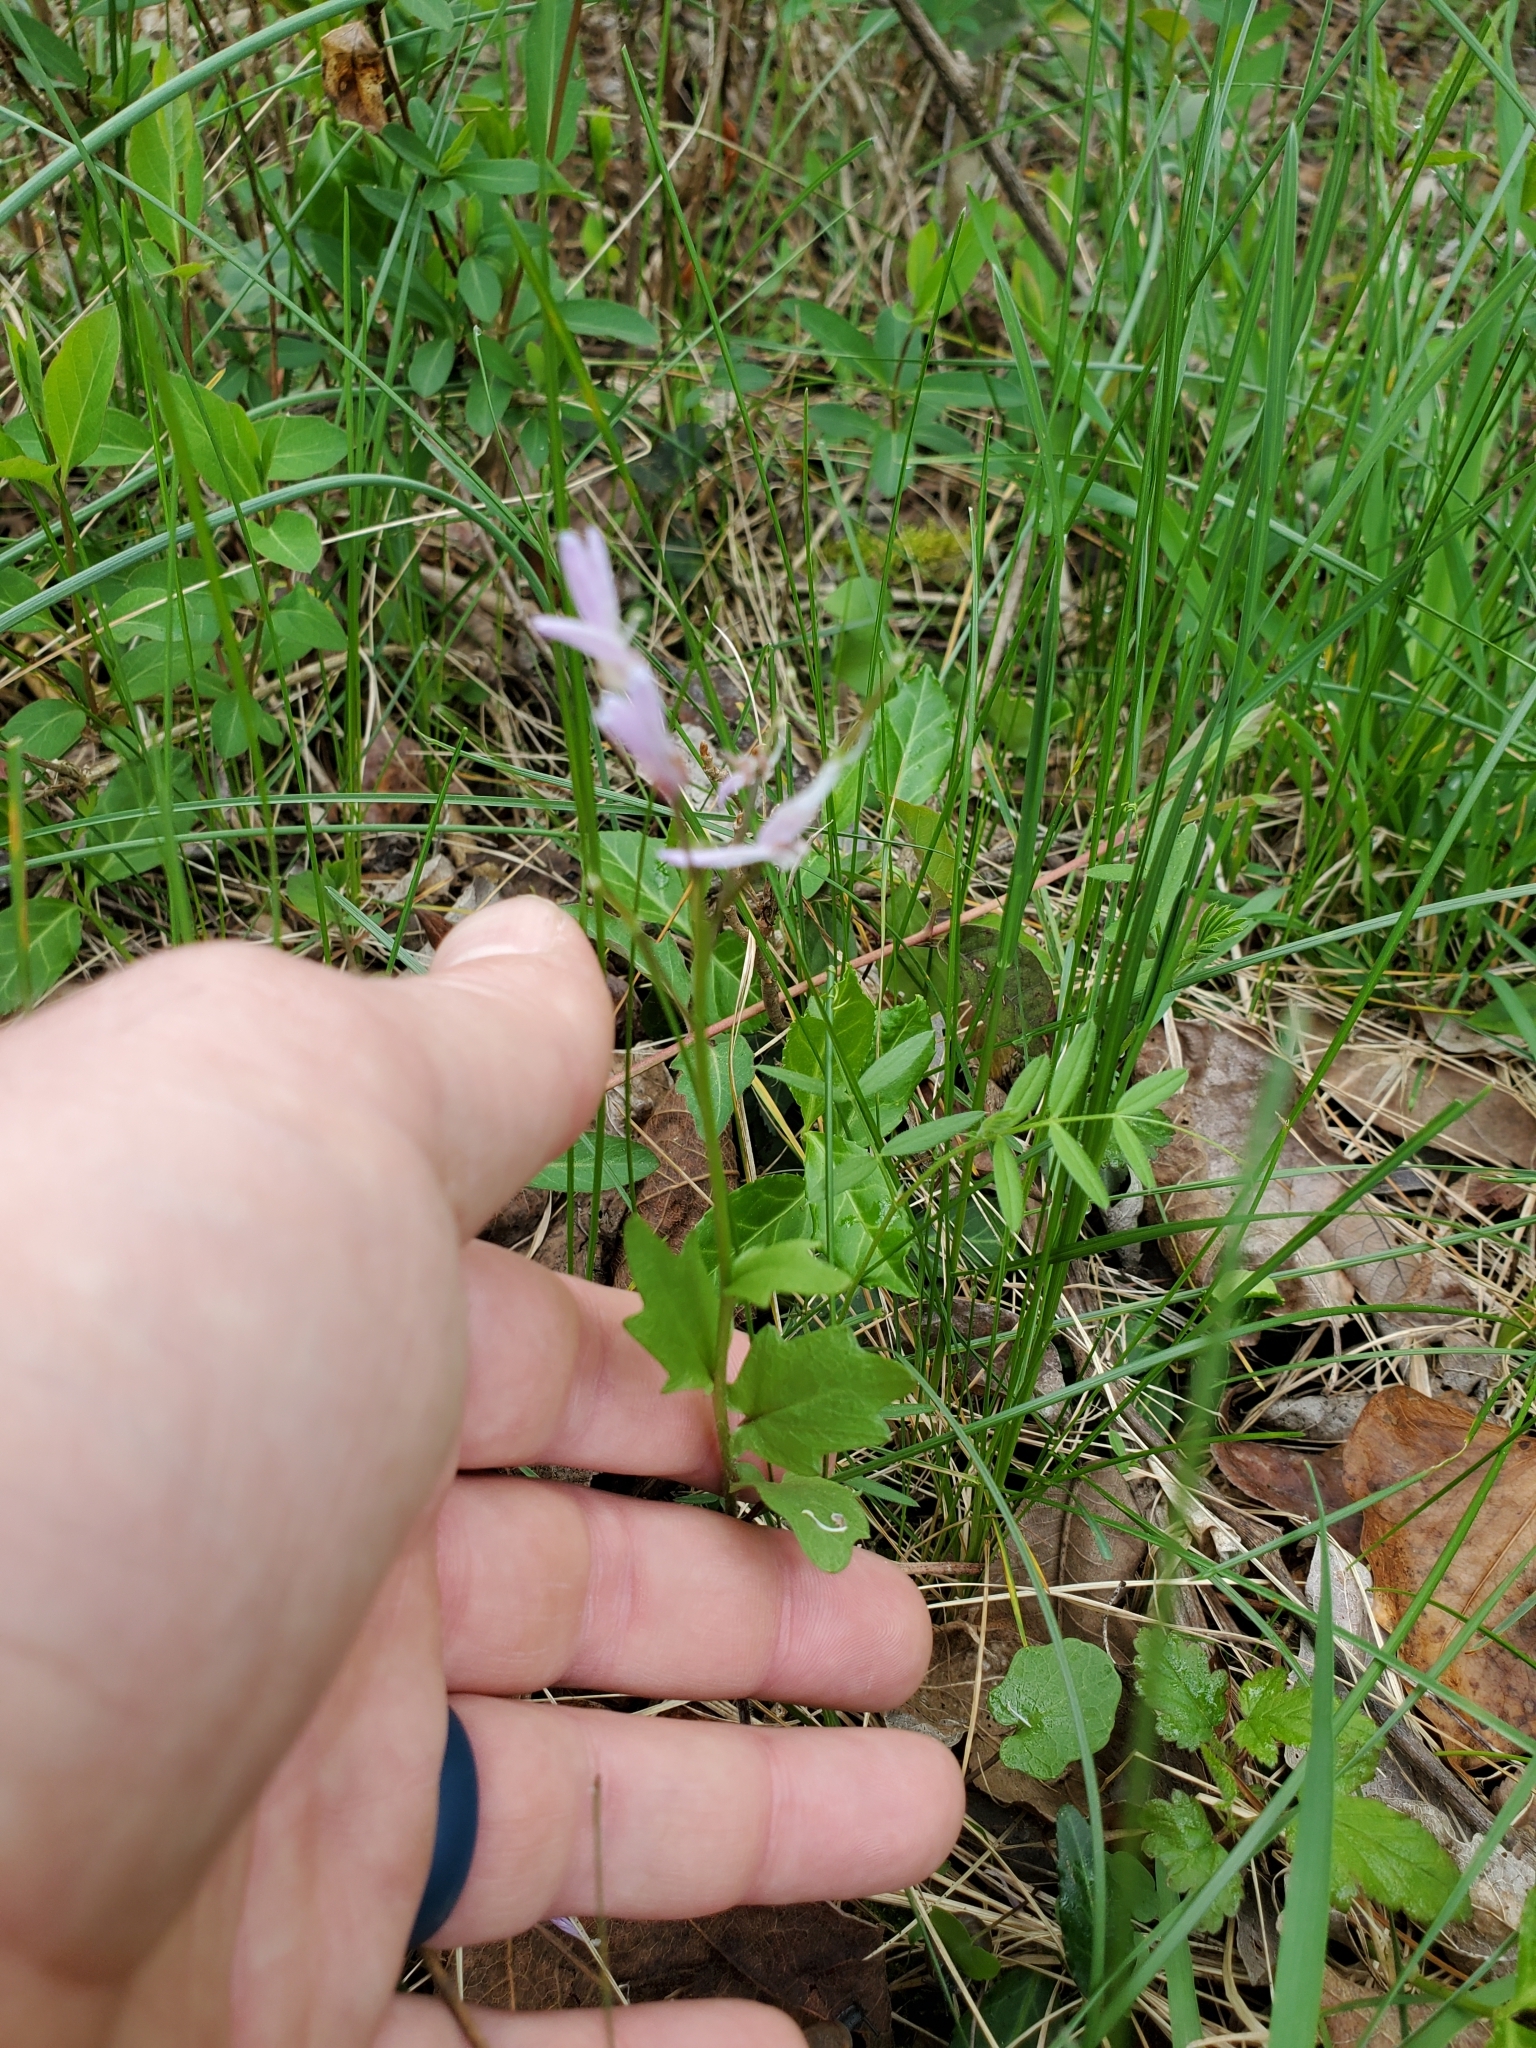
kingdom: Plantae
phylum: Tracheophyta
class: Magnoliopsida
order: Brassicales
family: Brassicaceae
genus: Cardamine
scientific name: Cardamine douglassii
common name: Purple cress
